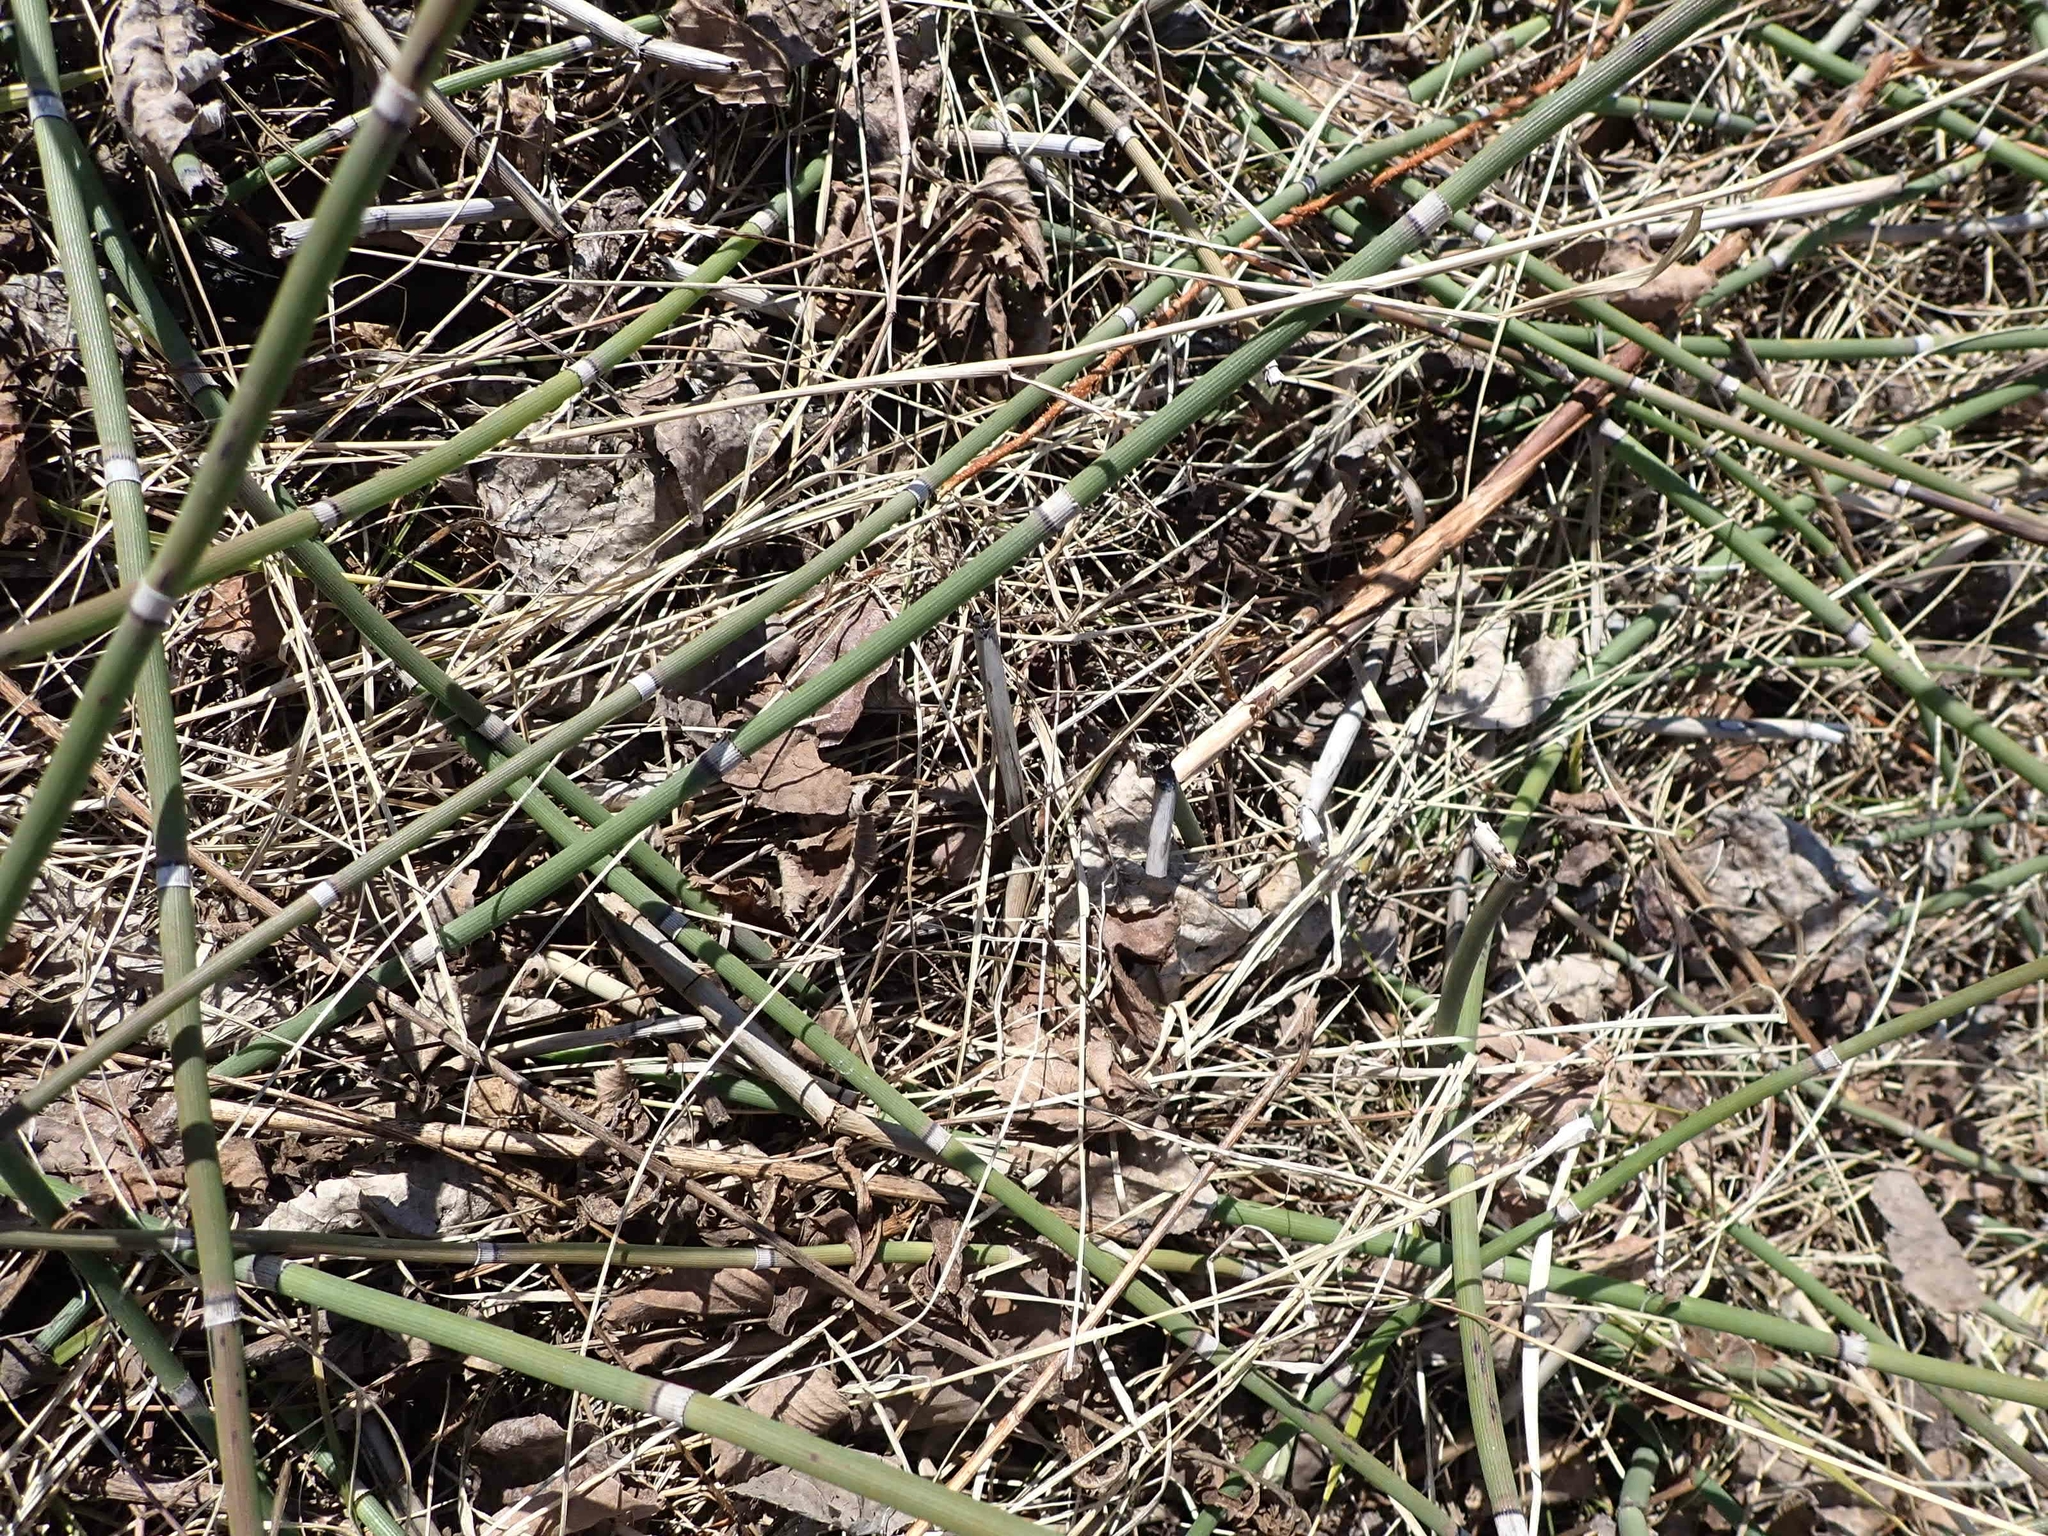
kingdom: Plantae
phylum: Tracheophyta
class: Polypodiopsida
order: Equisetales
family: Equisetaceae
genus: Equisetum
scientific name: Equisetum praealtum
